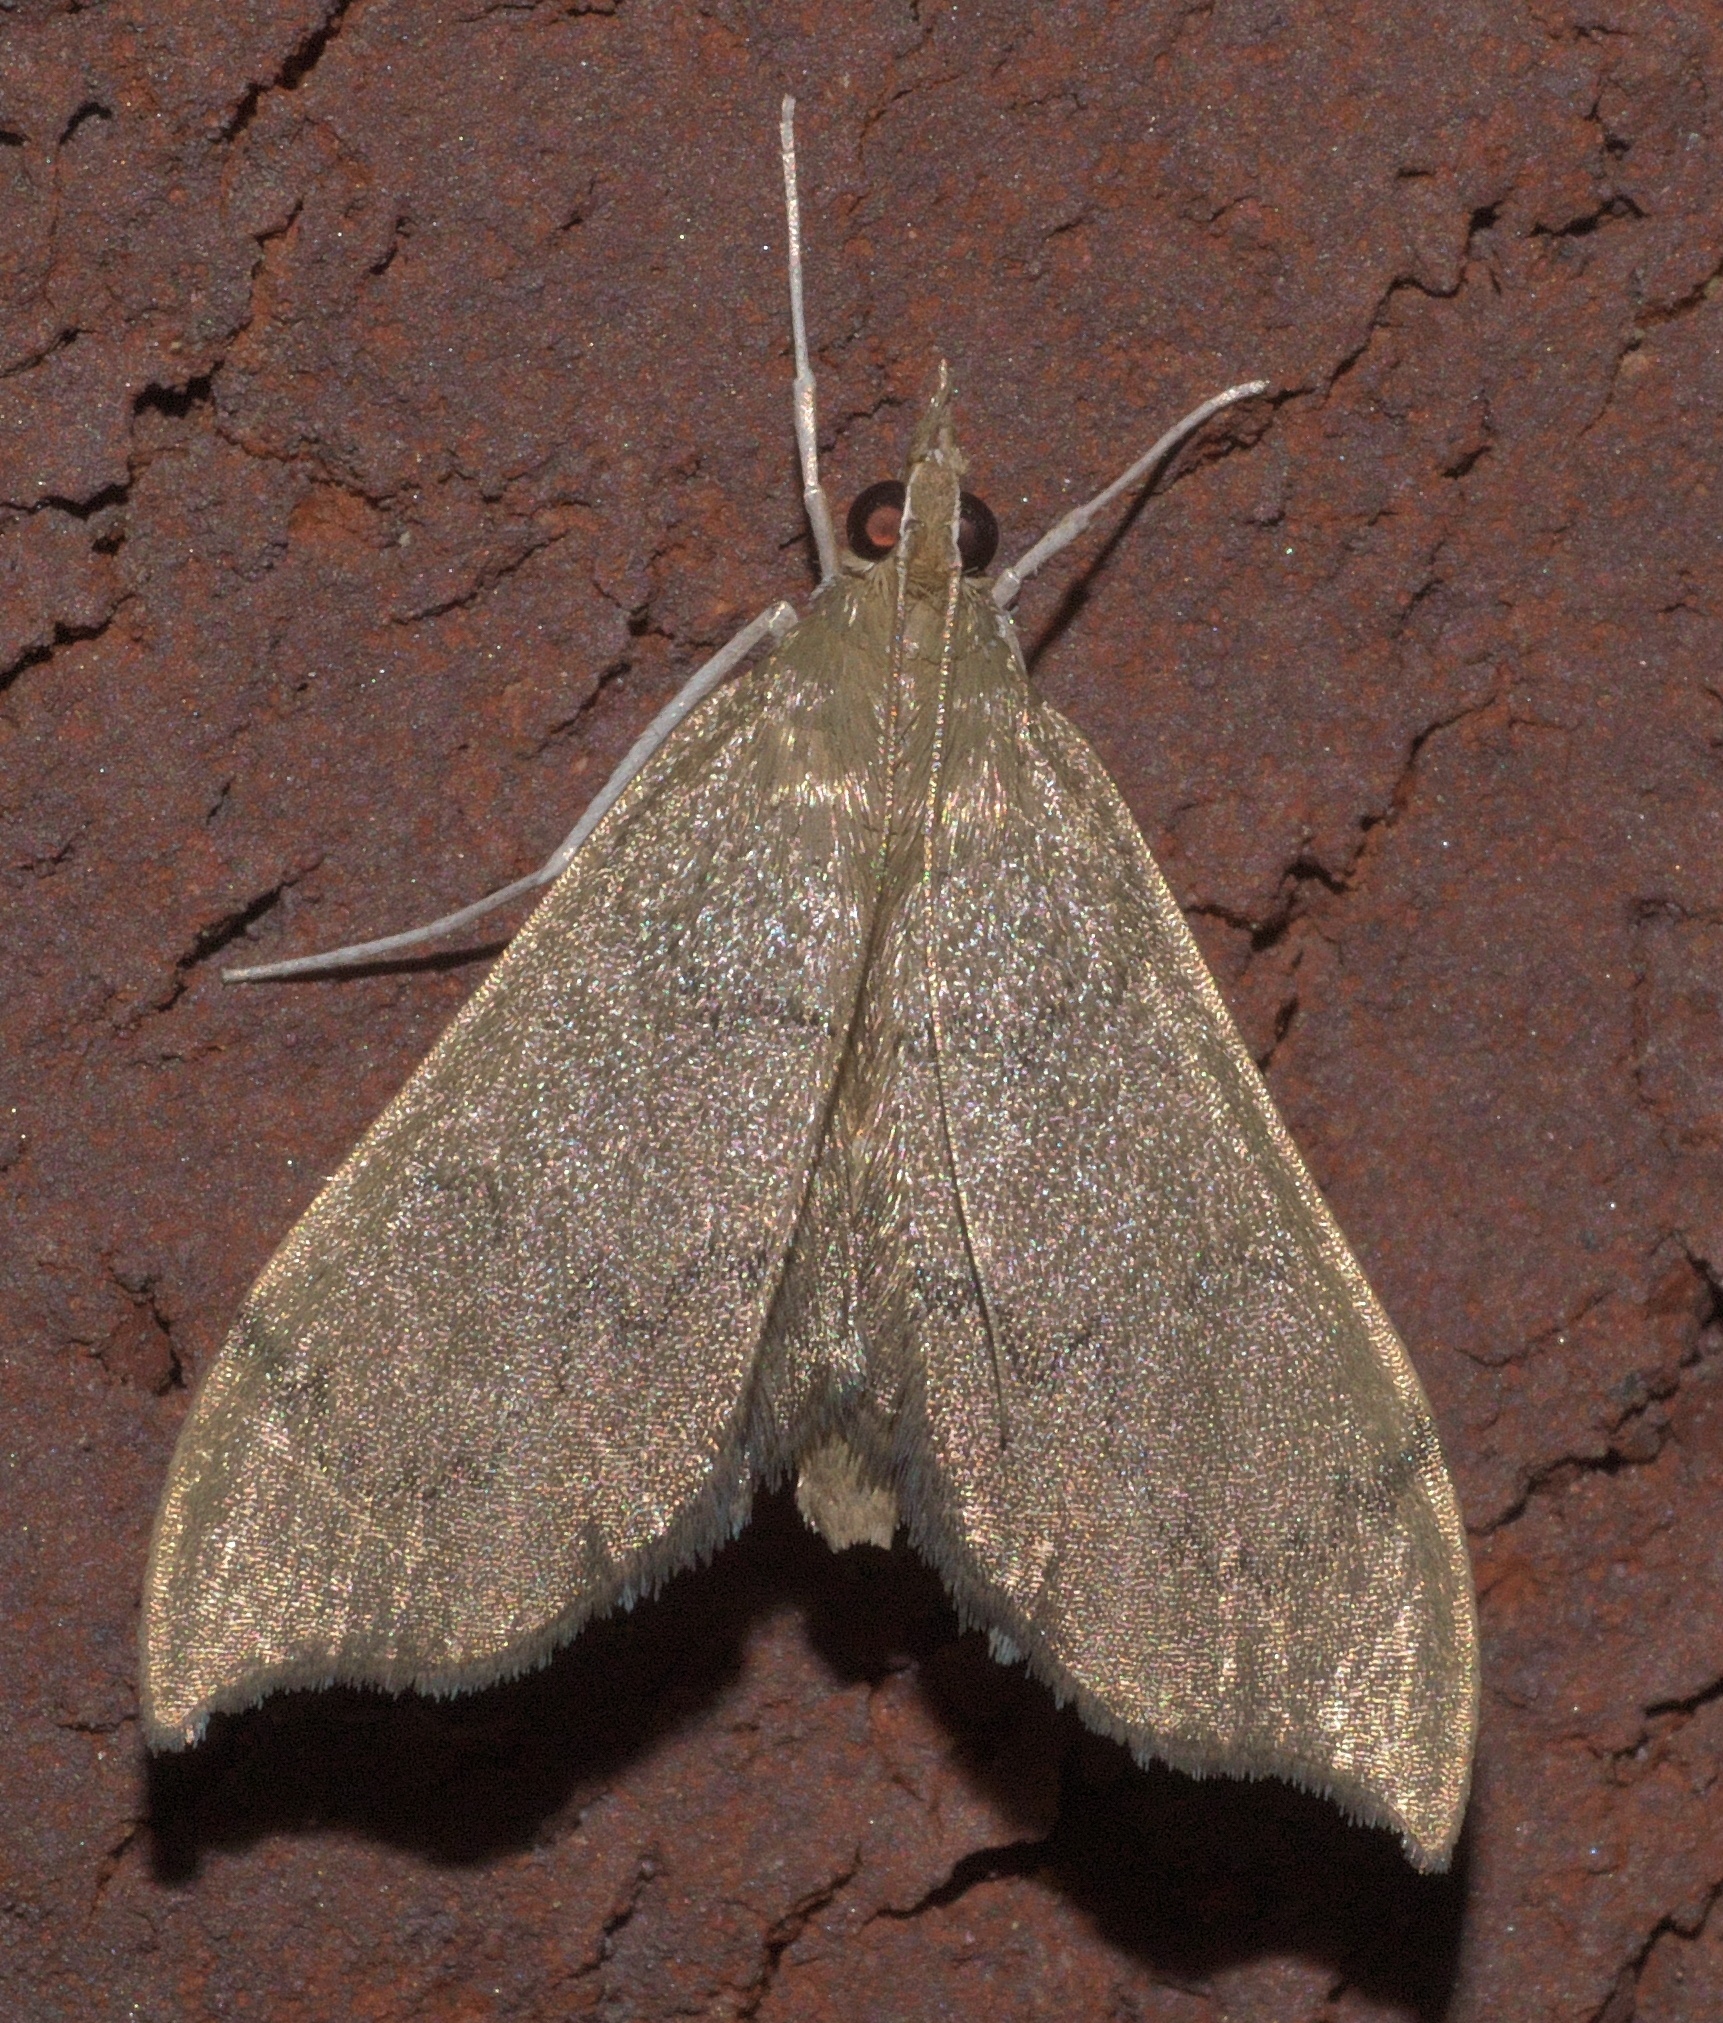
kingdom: Animalia
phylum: Arthropoda
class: Insecta
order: Lepidoptera
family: Crambidae
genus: Sericoplaga
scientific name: Sericoplaga externalis
